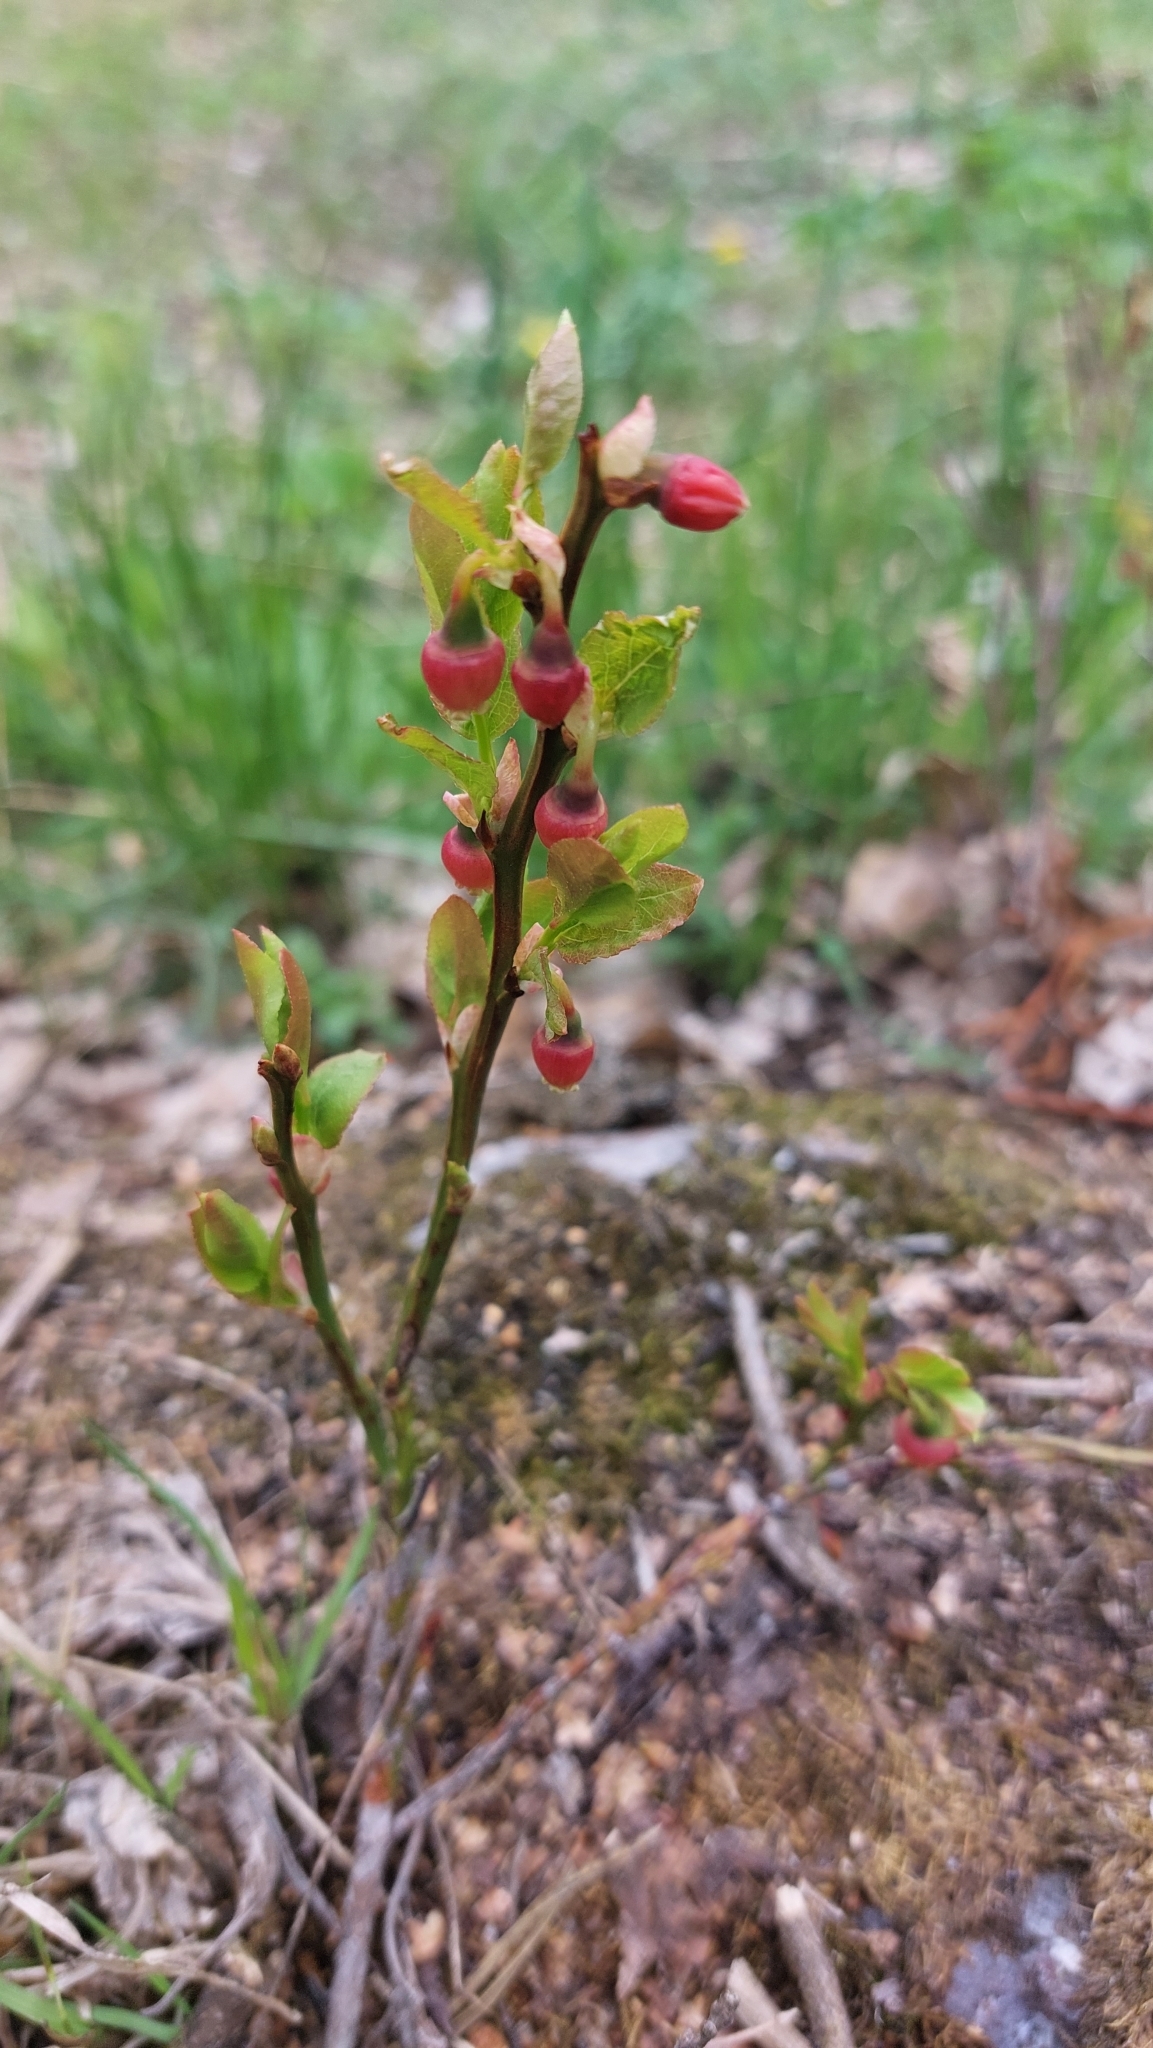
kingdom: Plantae
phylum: Tracheophyta
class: Magnoliopsida
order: Ericales
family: Ericaceae
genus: Vaccinium
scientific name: Vaccinium myrtillus
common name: Bilberry
